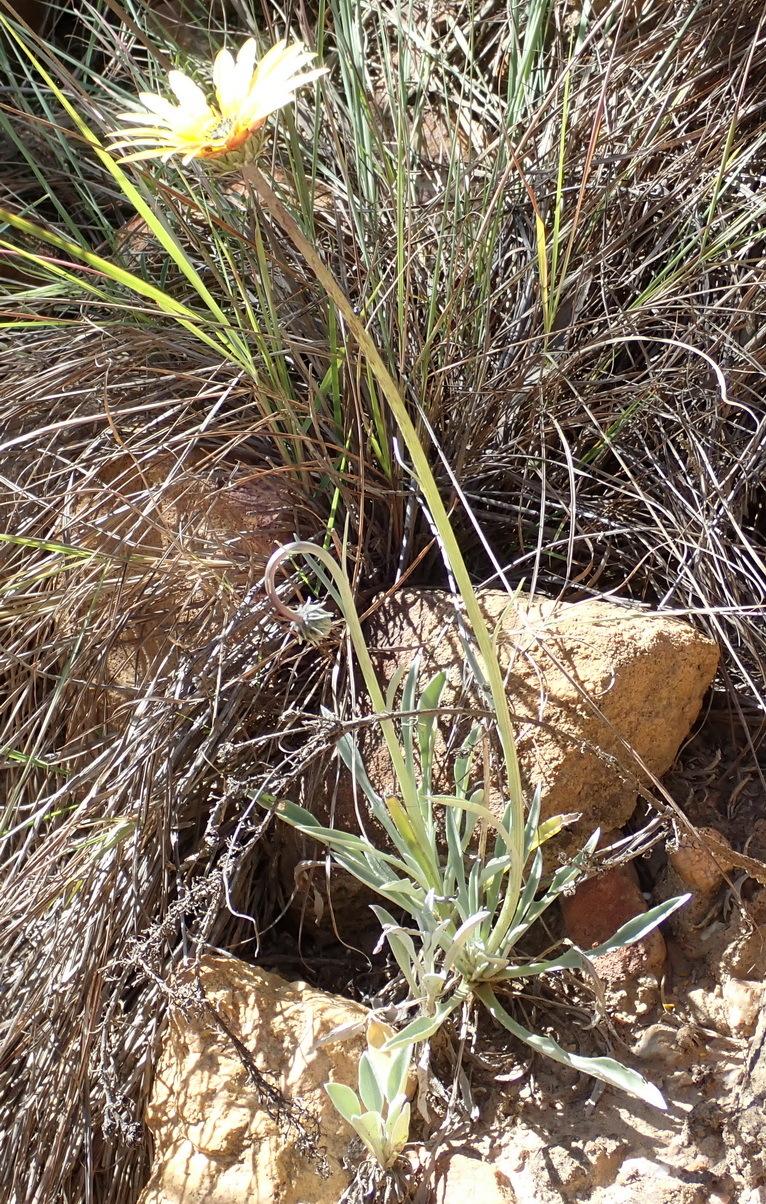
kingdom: Plantae
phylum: Tracheophyta
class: Magnoliopsida
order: Asterales
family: Asteraceae
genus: Arctotis
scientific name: Arctotis lanceolata
